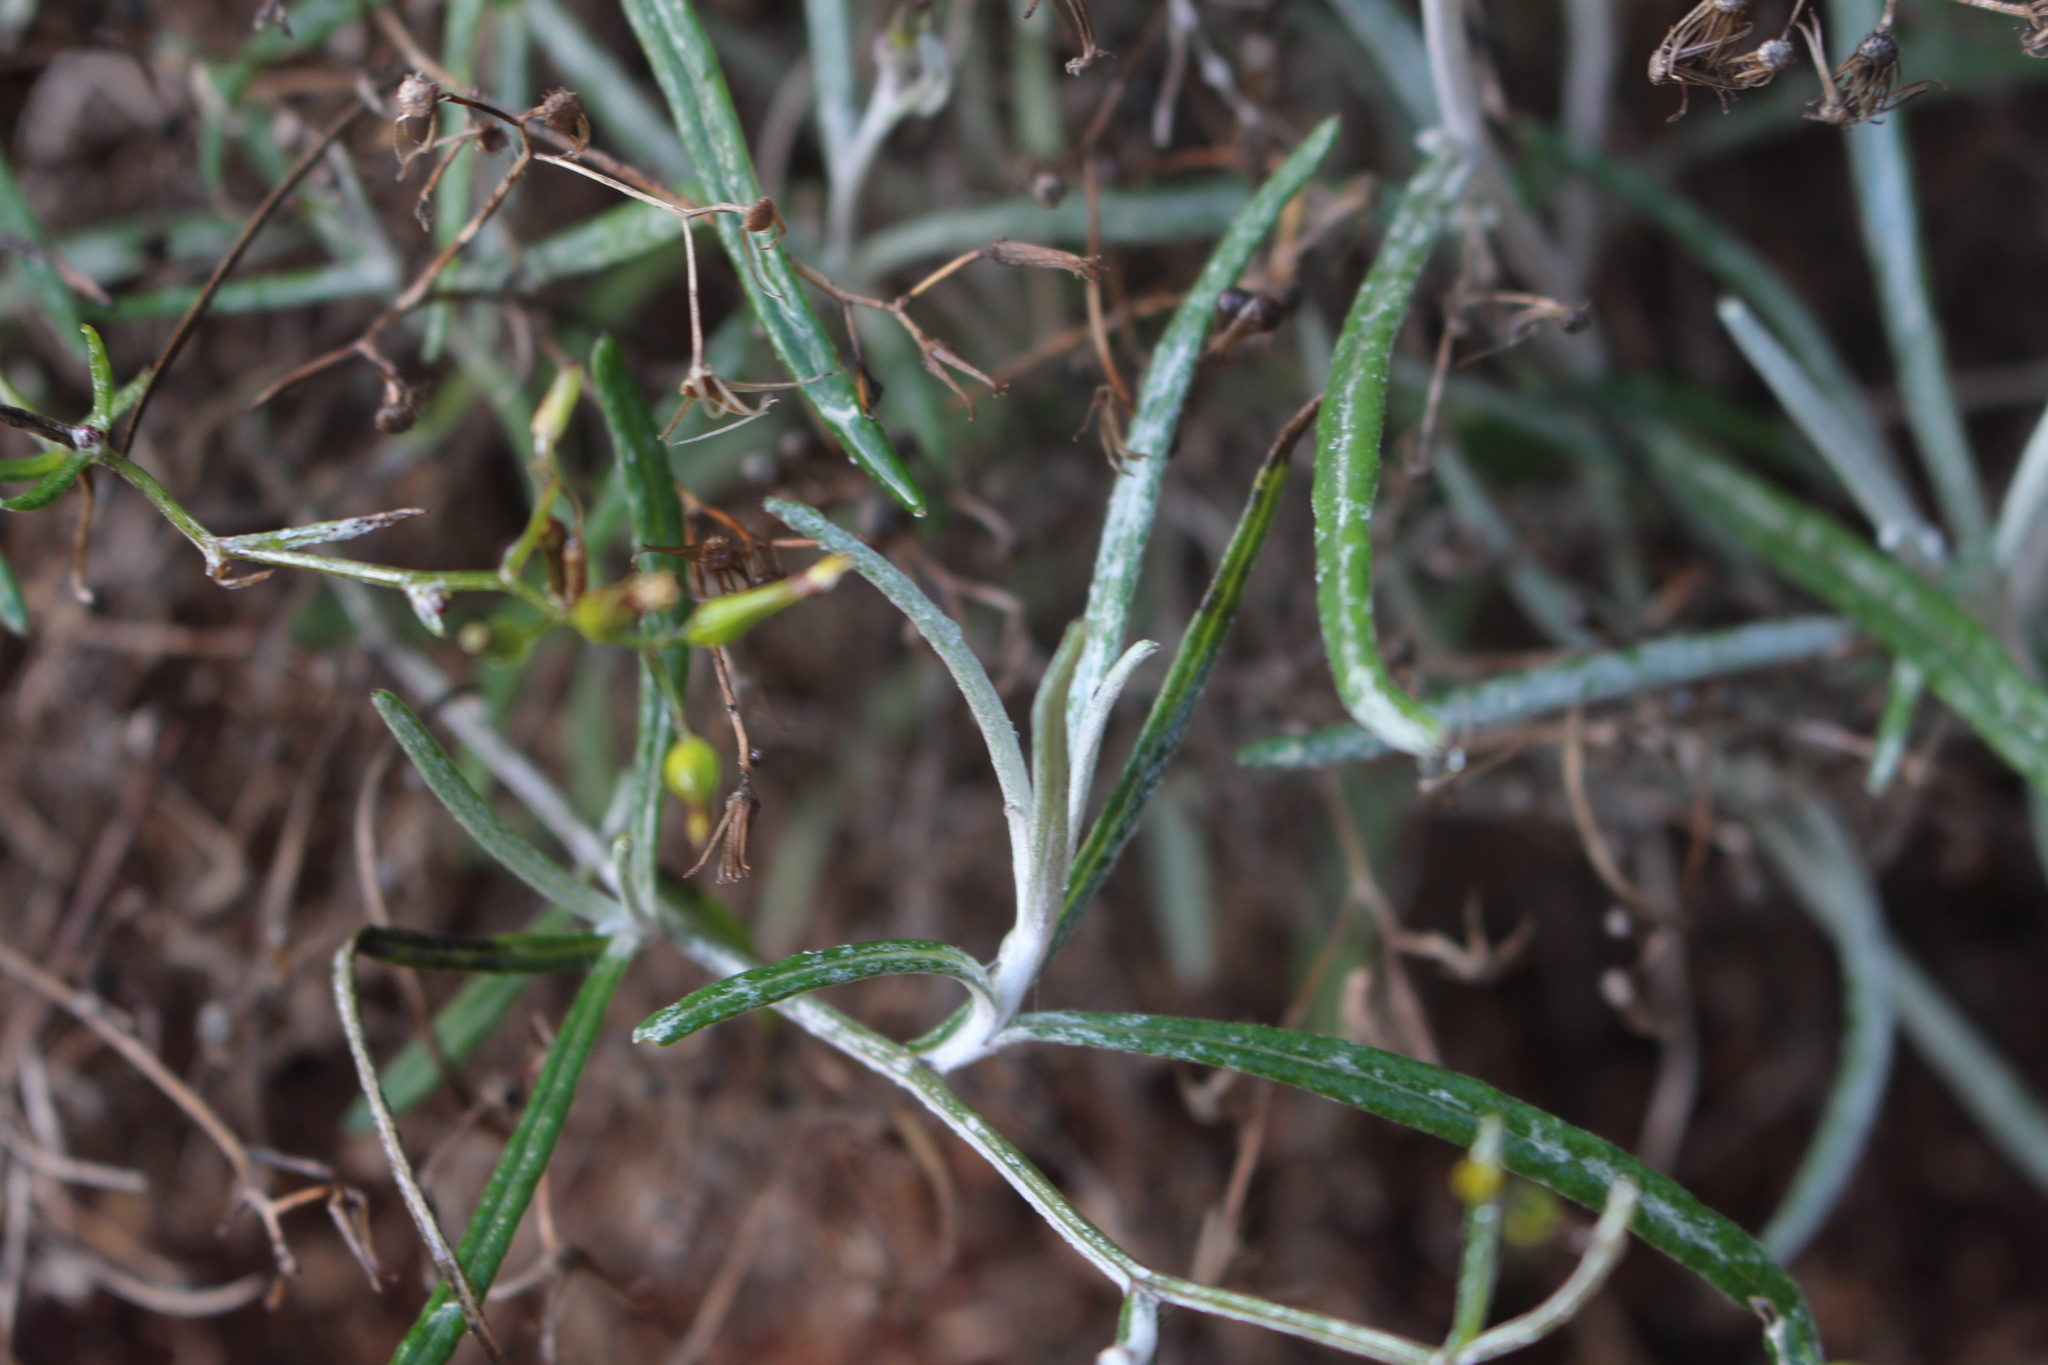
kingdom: Plantae
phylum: Tracheophyta
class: Magnoliopsida
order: Asterales
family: Asteraceae
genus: Senecio
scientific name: Senecio quadridentatus
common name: Cotton fireweed
